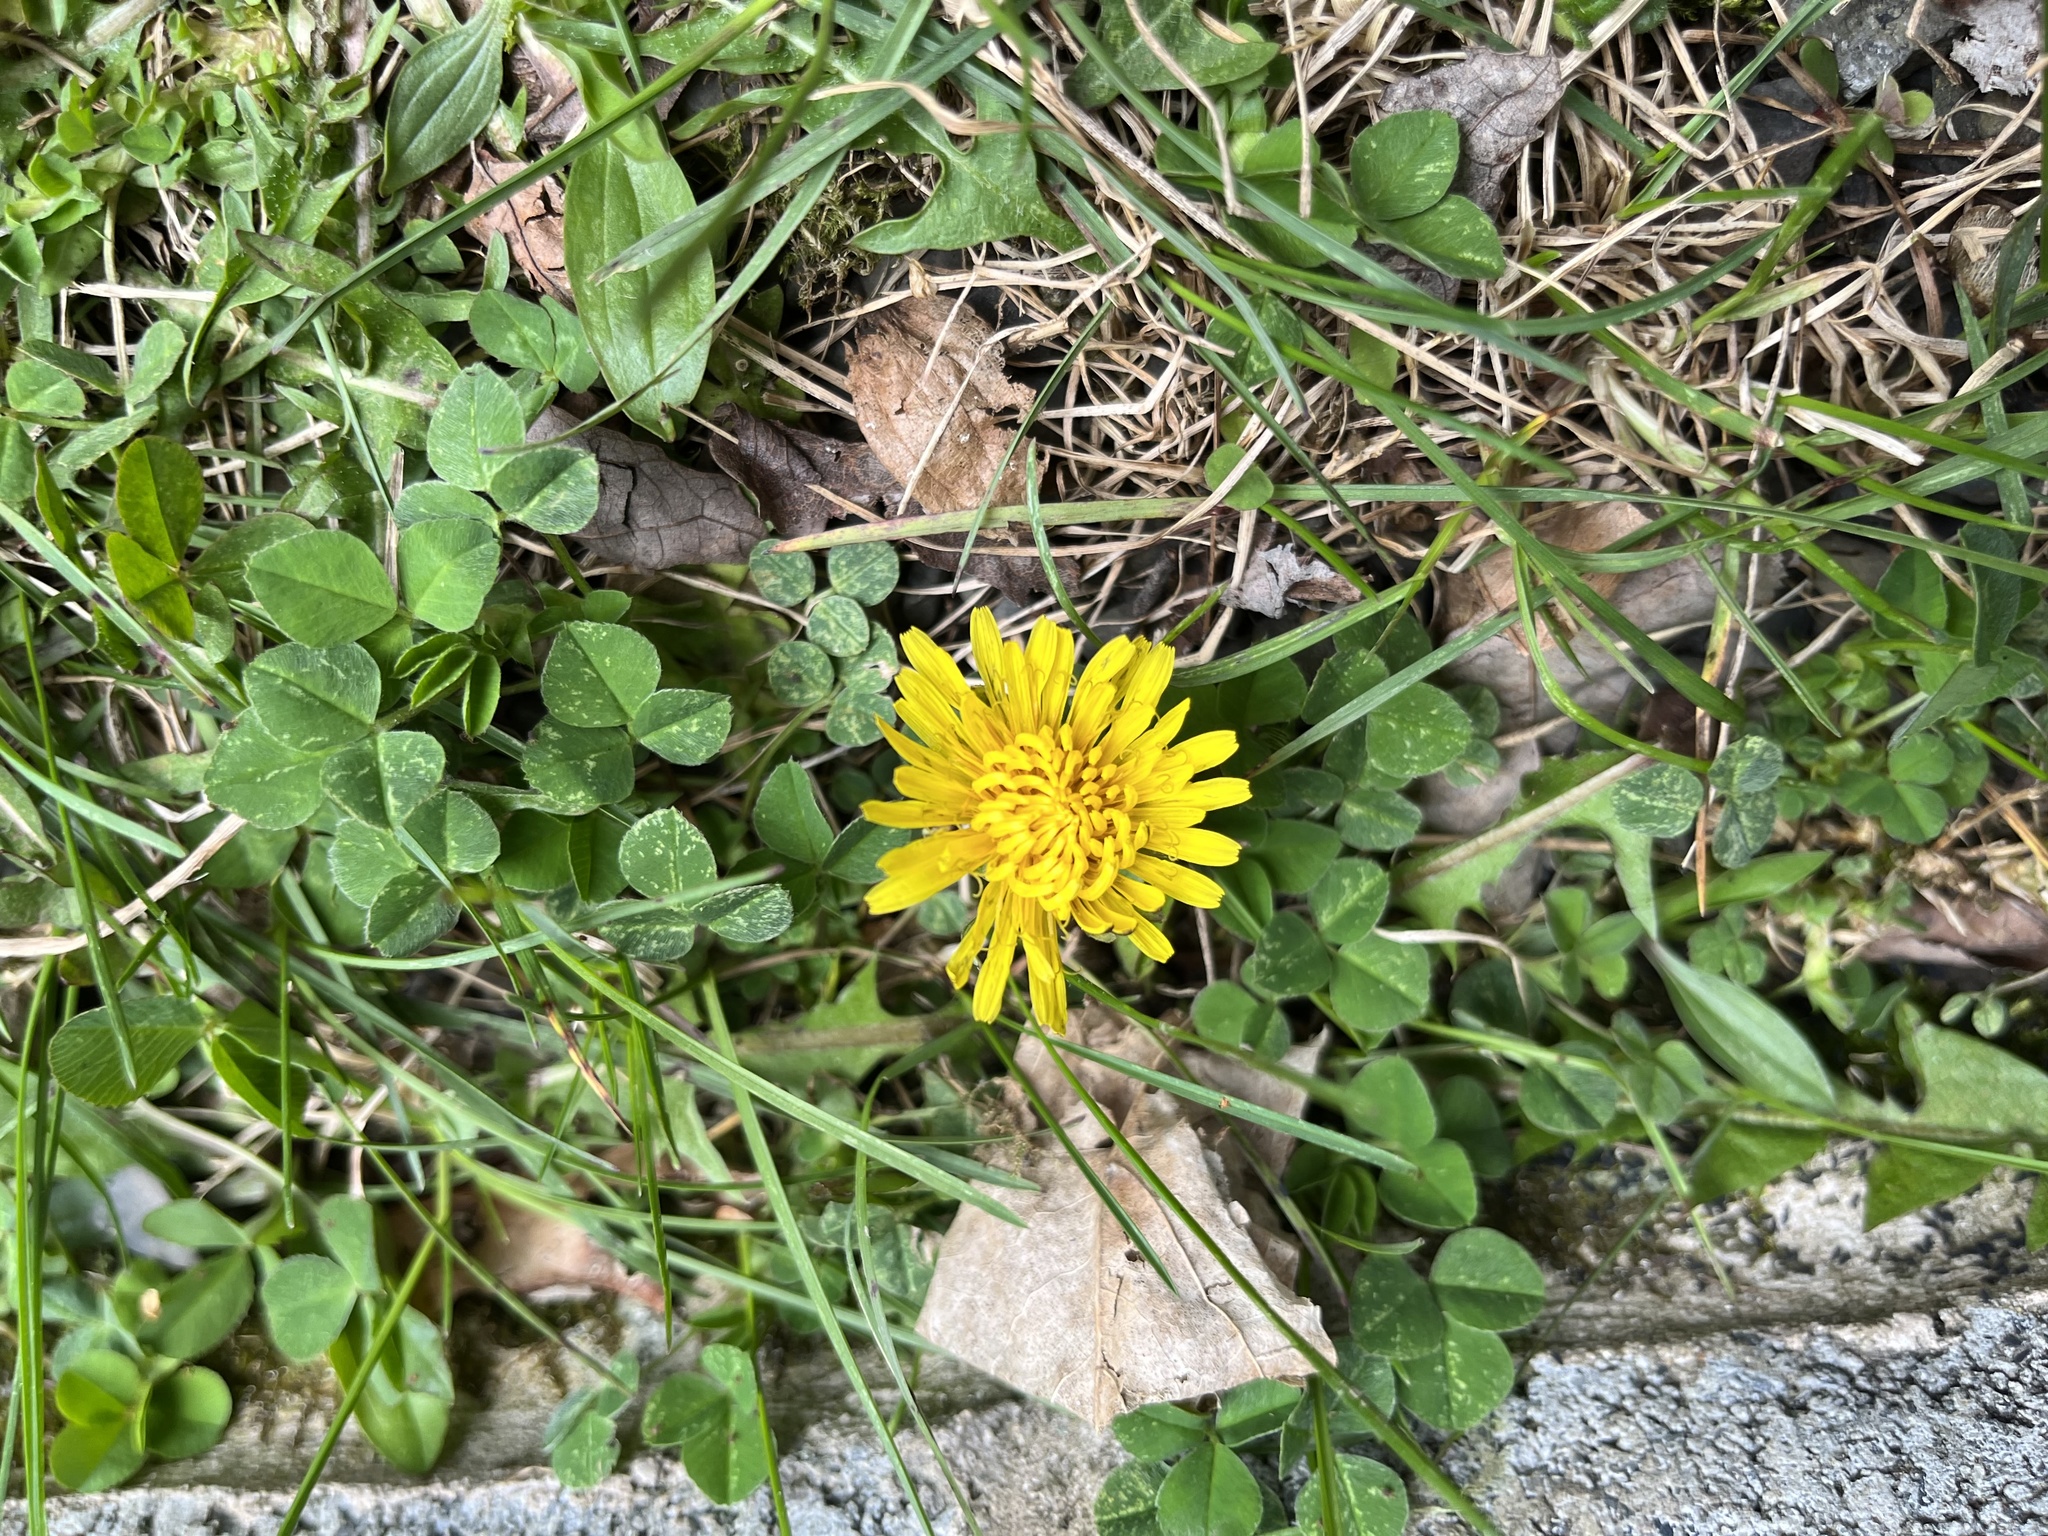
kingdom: Plantae
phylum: Tracheophyta
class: Magnoliopsida
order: Asterales
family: Asteraceae
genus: Taraxacum
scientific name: Taraxacum officinale
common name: Common dandelion
